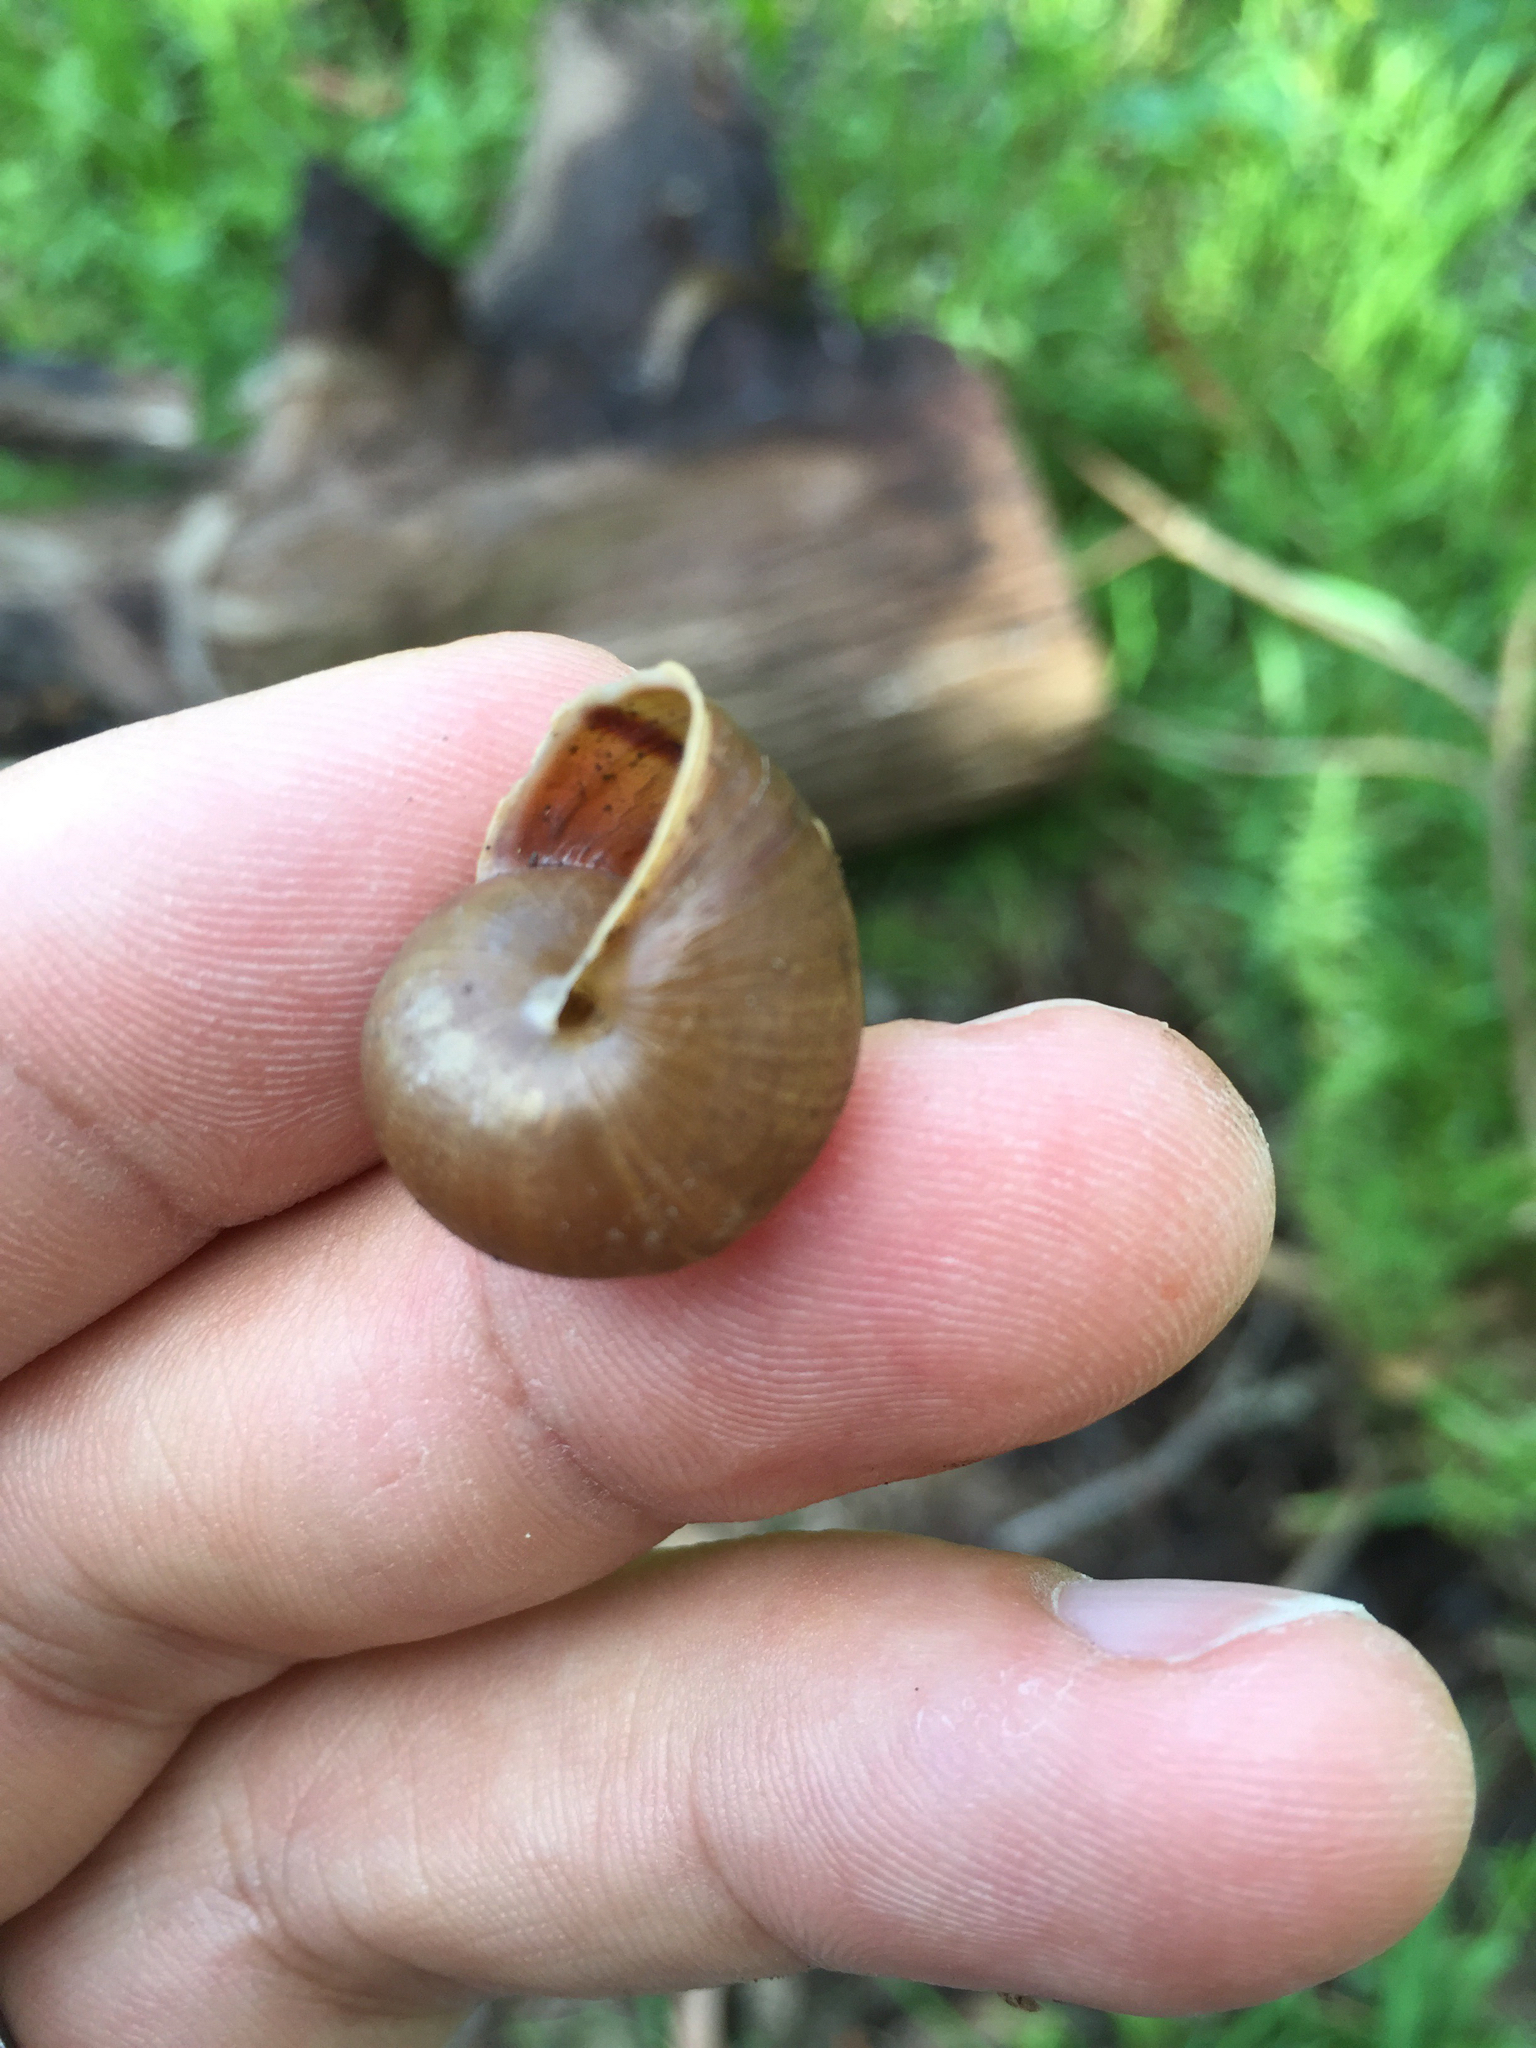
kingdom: Animalia
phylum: Mollusca
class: Gastropoda
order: Stylommatophora
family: Xanthonychidae
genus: Helminthoglypta
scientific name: Helminthoglypta nickliniana
